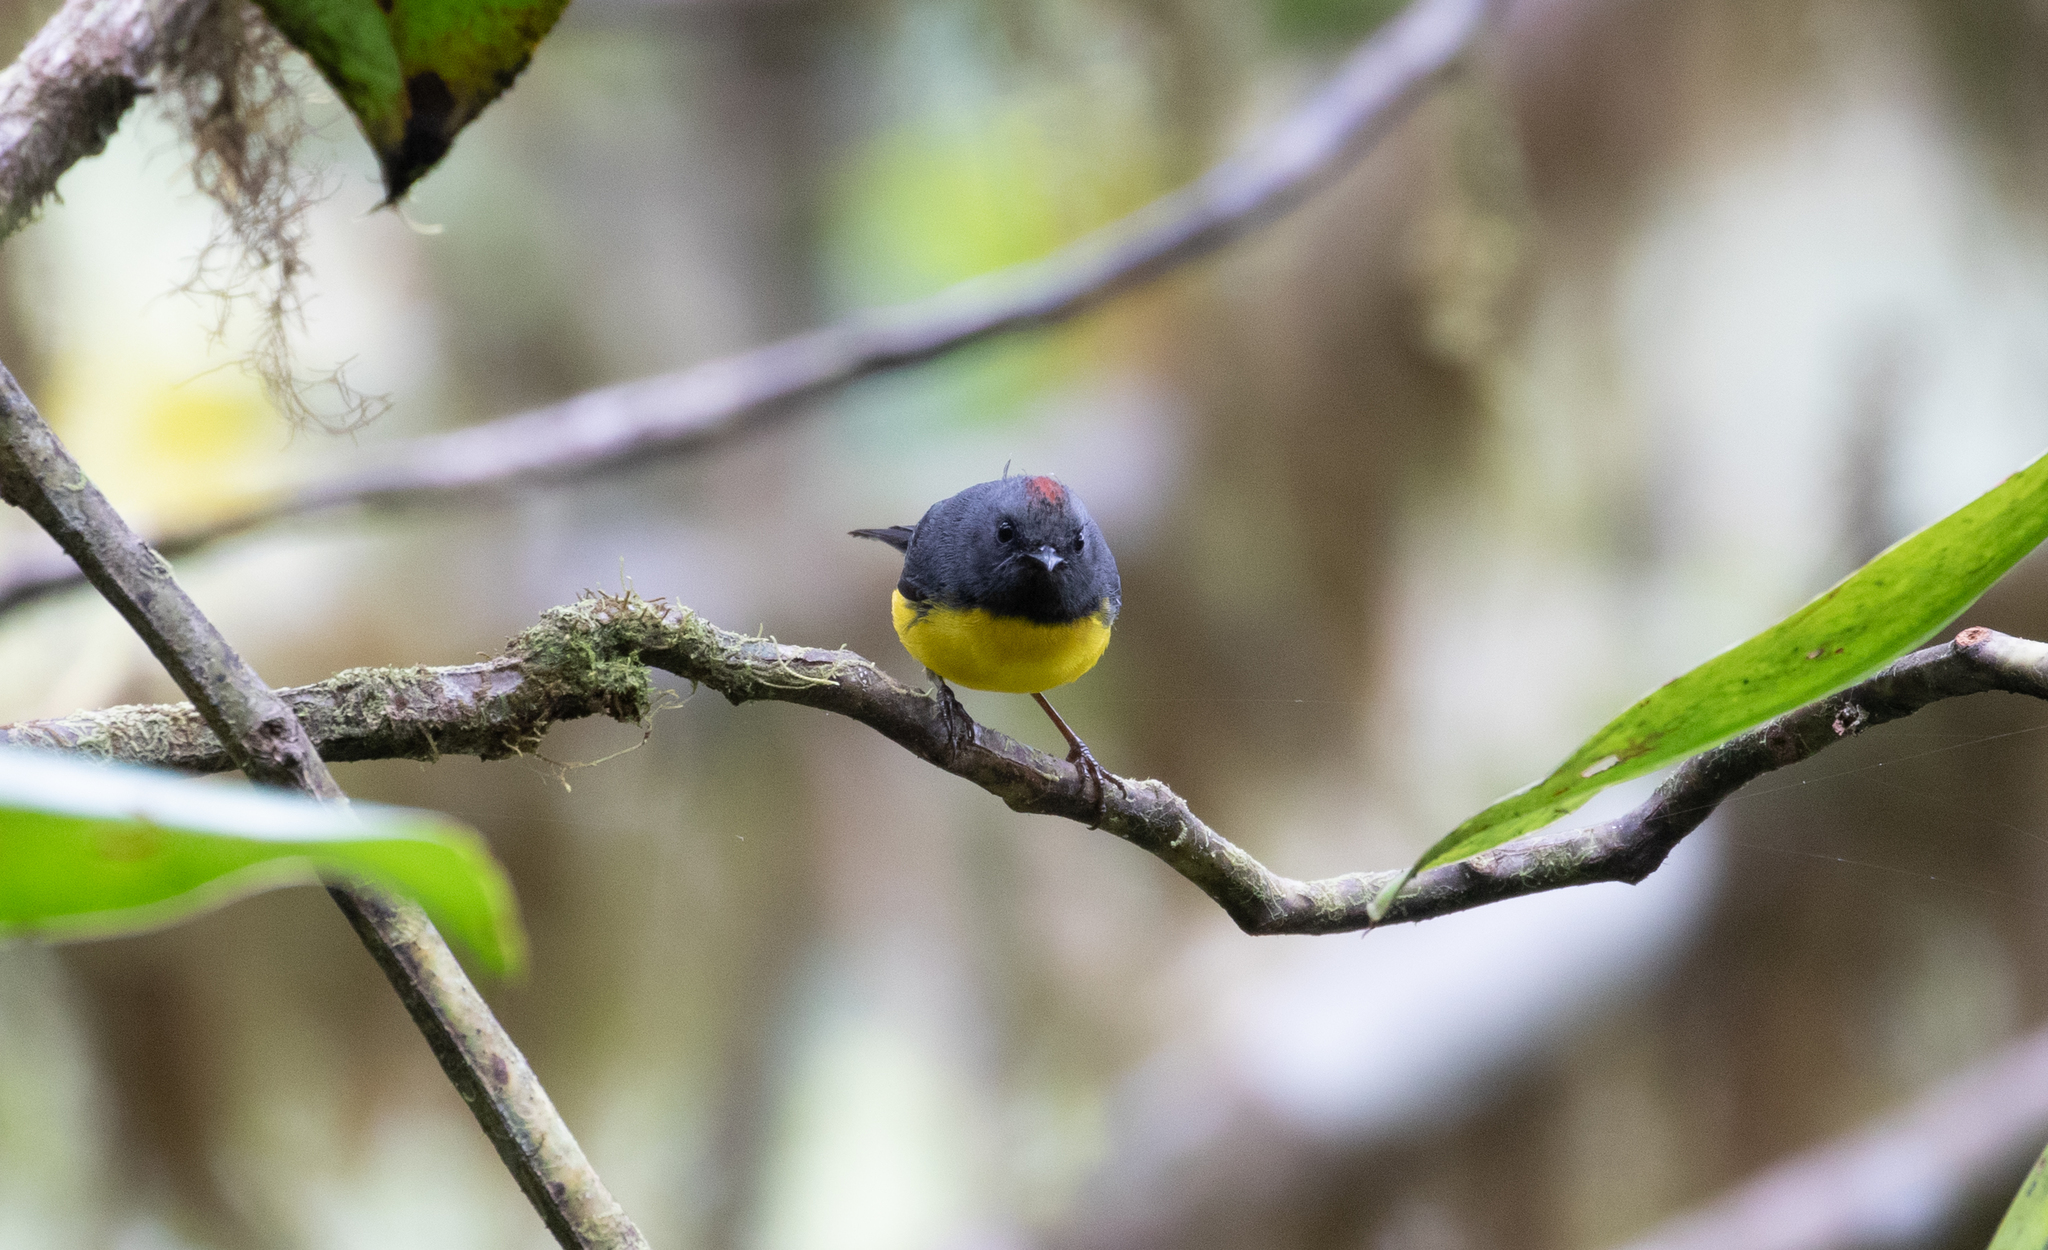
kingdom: Animalia
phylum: Chordata
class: Aves
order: Passeriformes
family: Parulidae
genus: Myioborus
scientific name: Myioborus miniatus
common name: Slate-throated redstart
